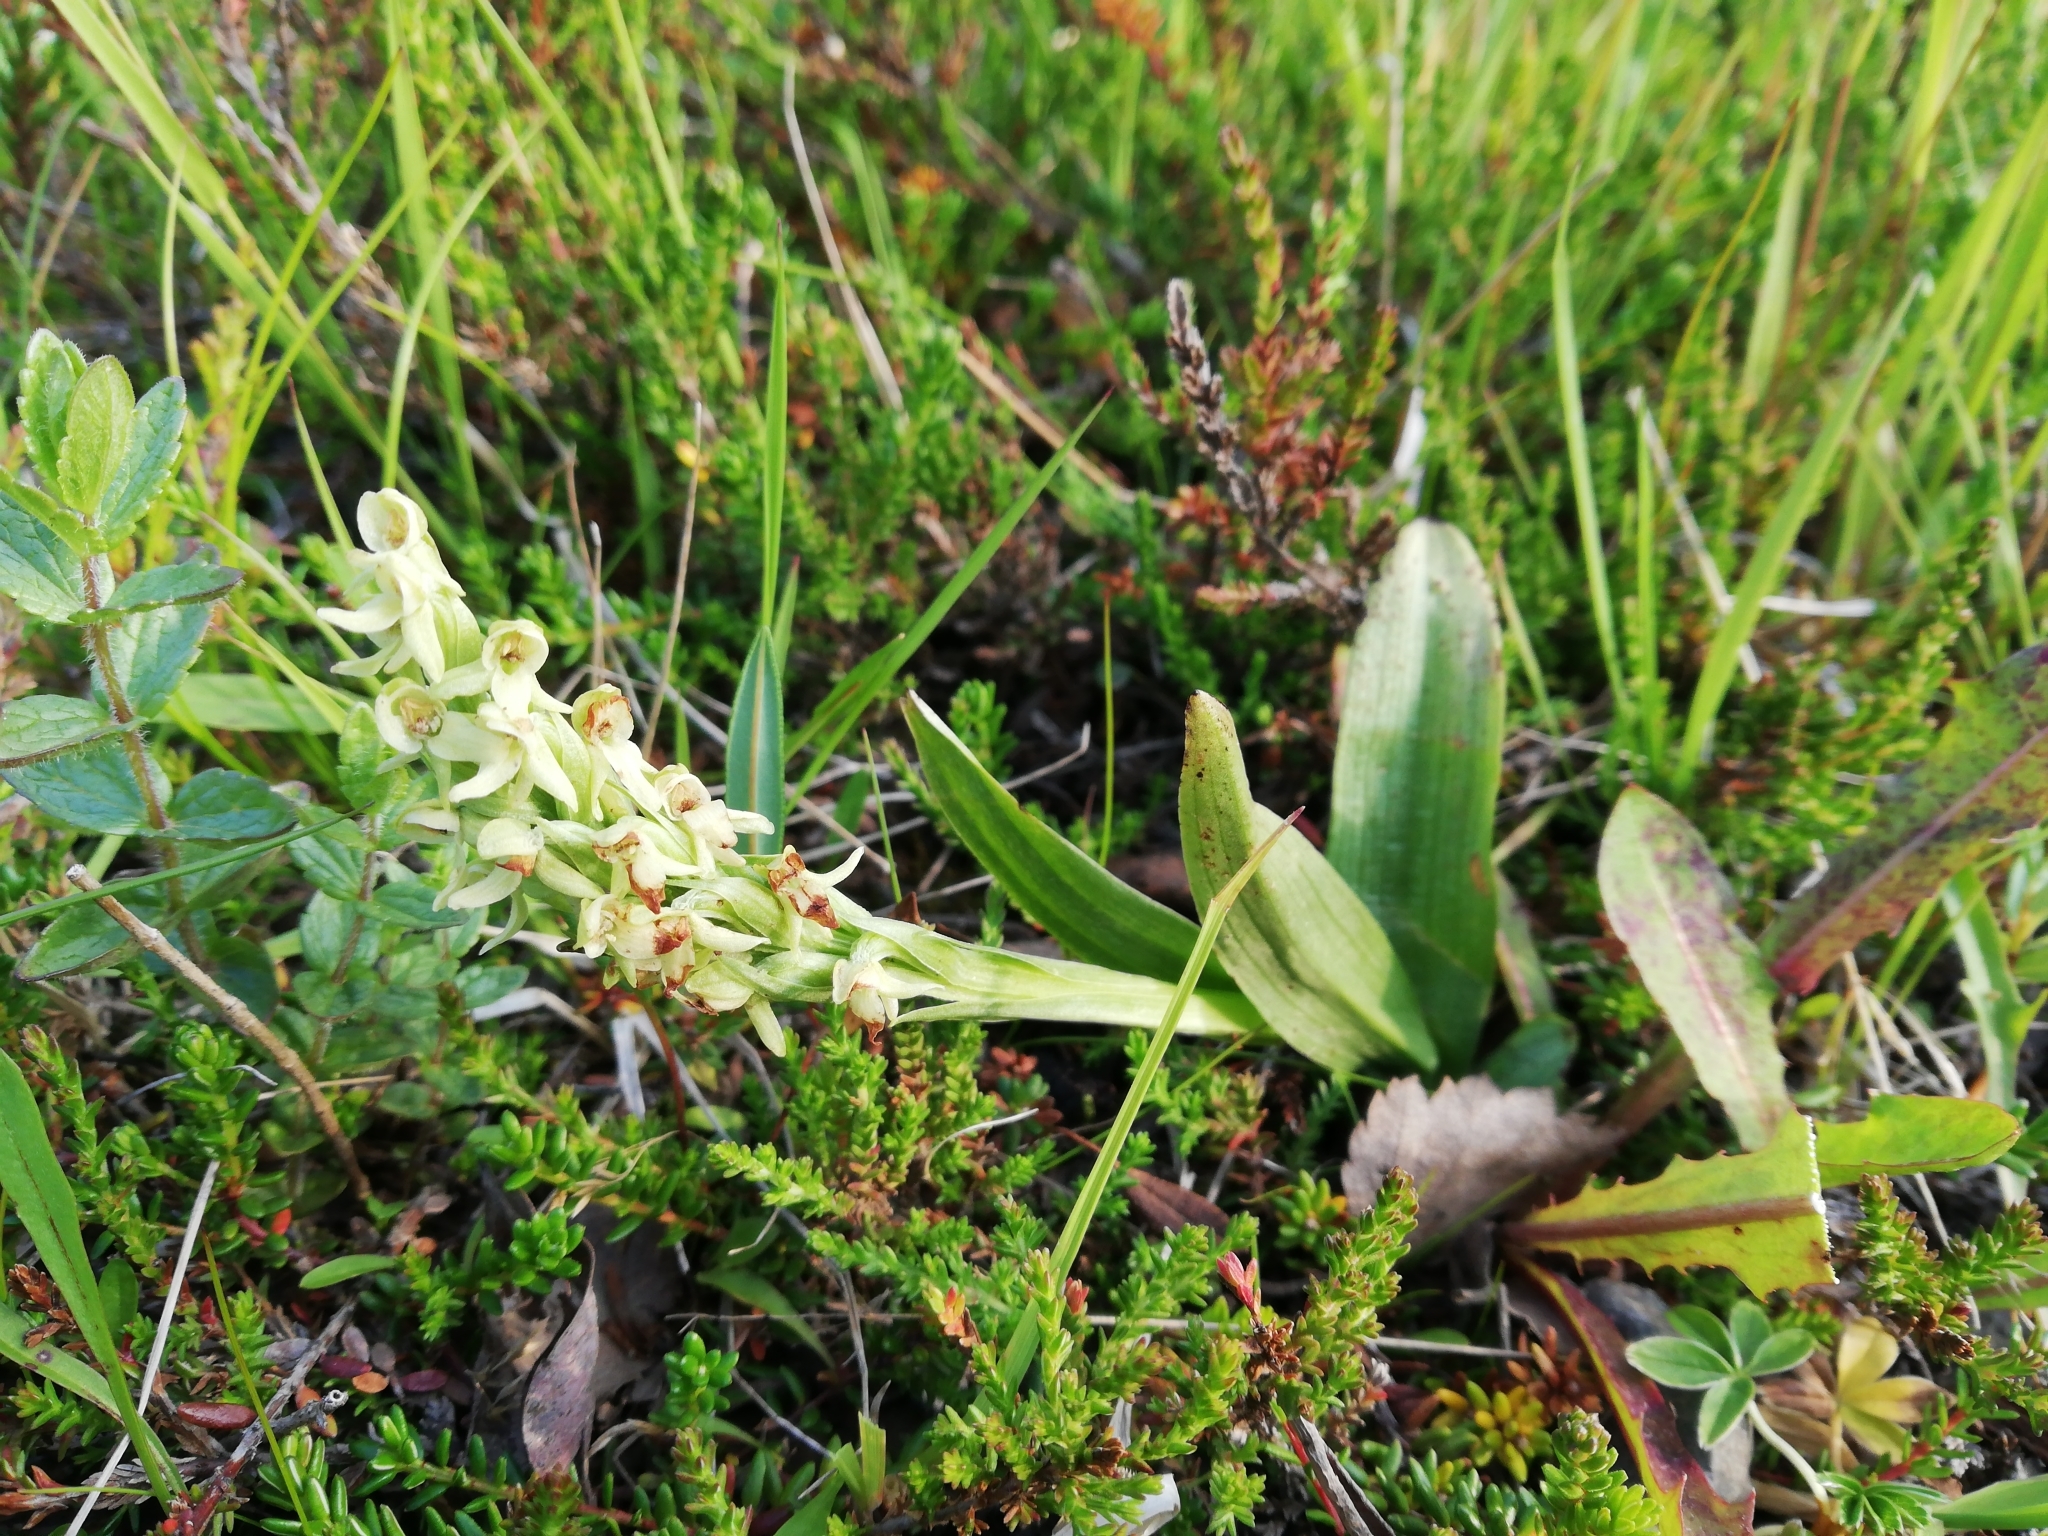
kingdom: Plantae
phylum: Tracheophyta
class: Liliopsida
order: Asparagales
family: Orchidaceae
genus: Platanthera
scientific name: Platanthera hyperborea
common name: Northern green orchid
